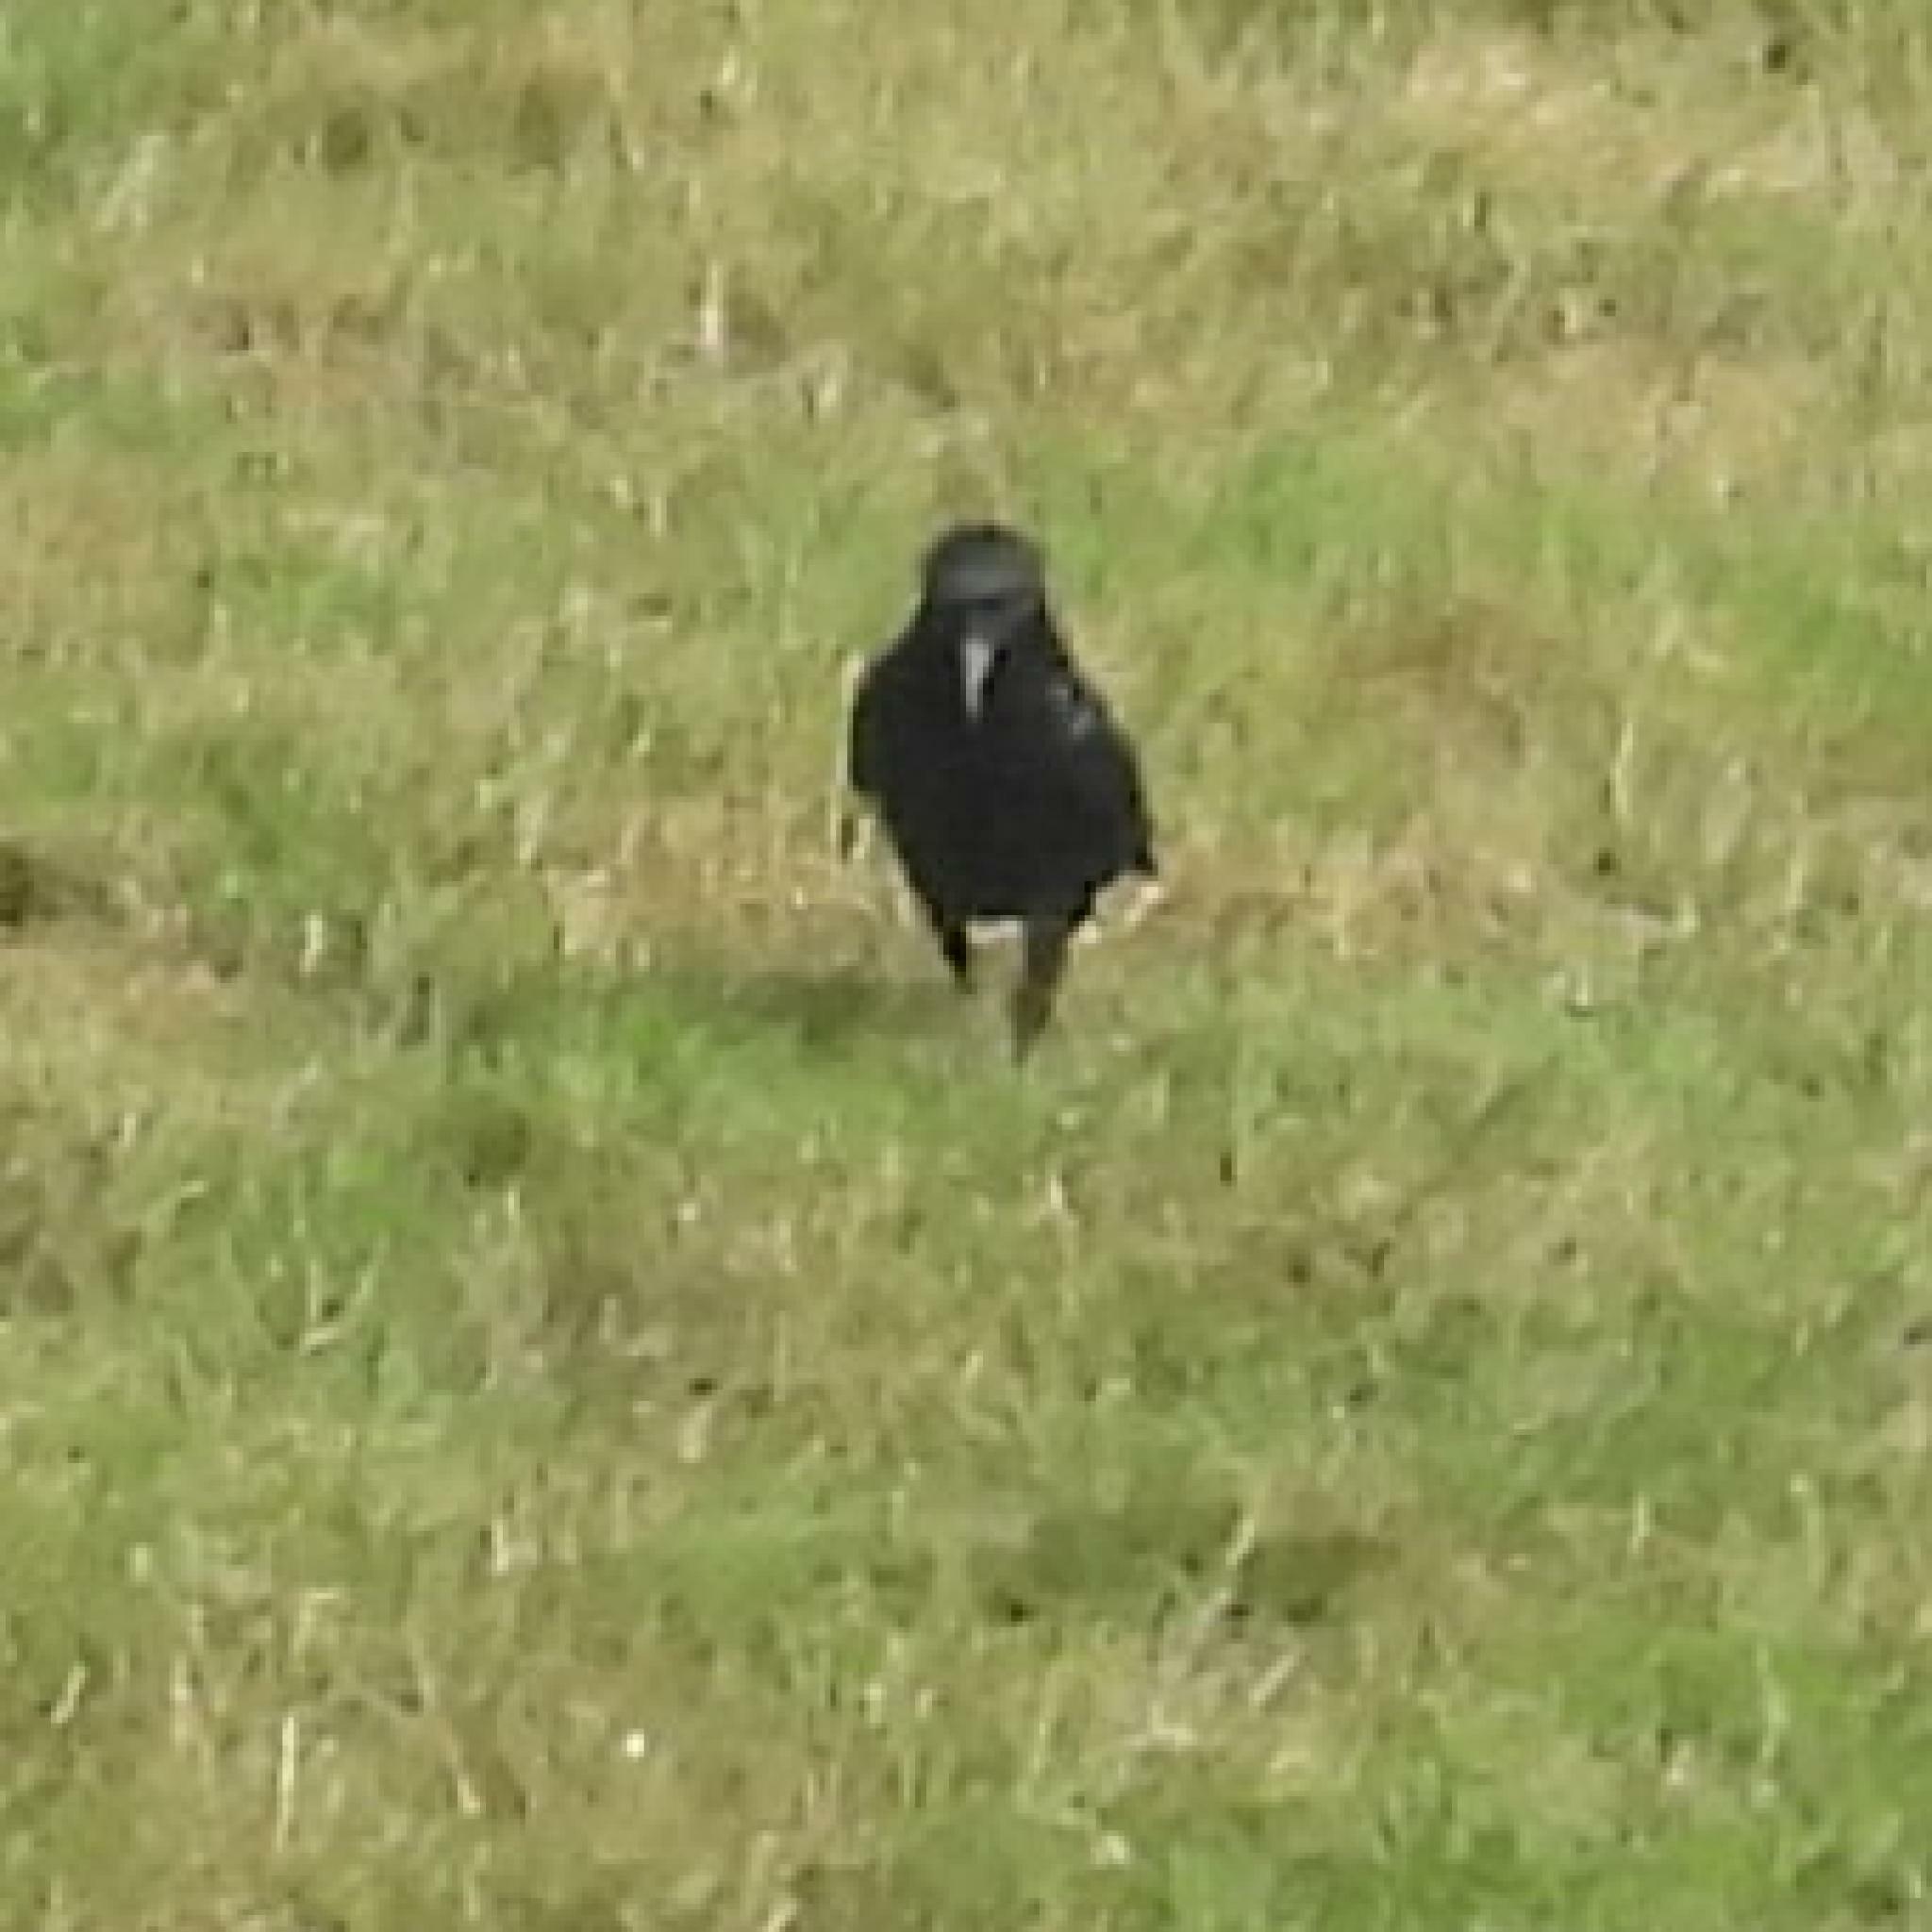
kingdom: Animalia
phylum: Chordata
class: Aves
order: Passeriformes
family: Corvidae
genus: Corvus
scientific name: Corvus capensis
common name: Cape crow
